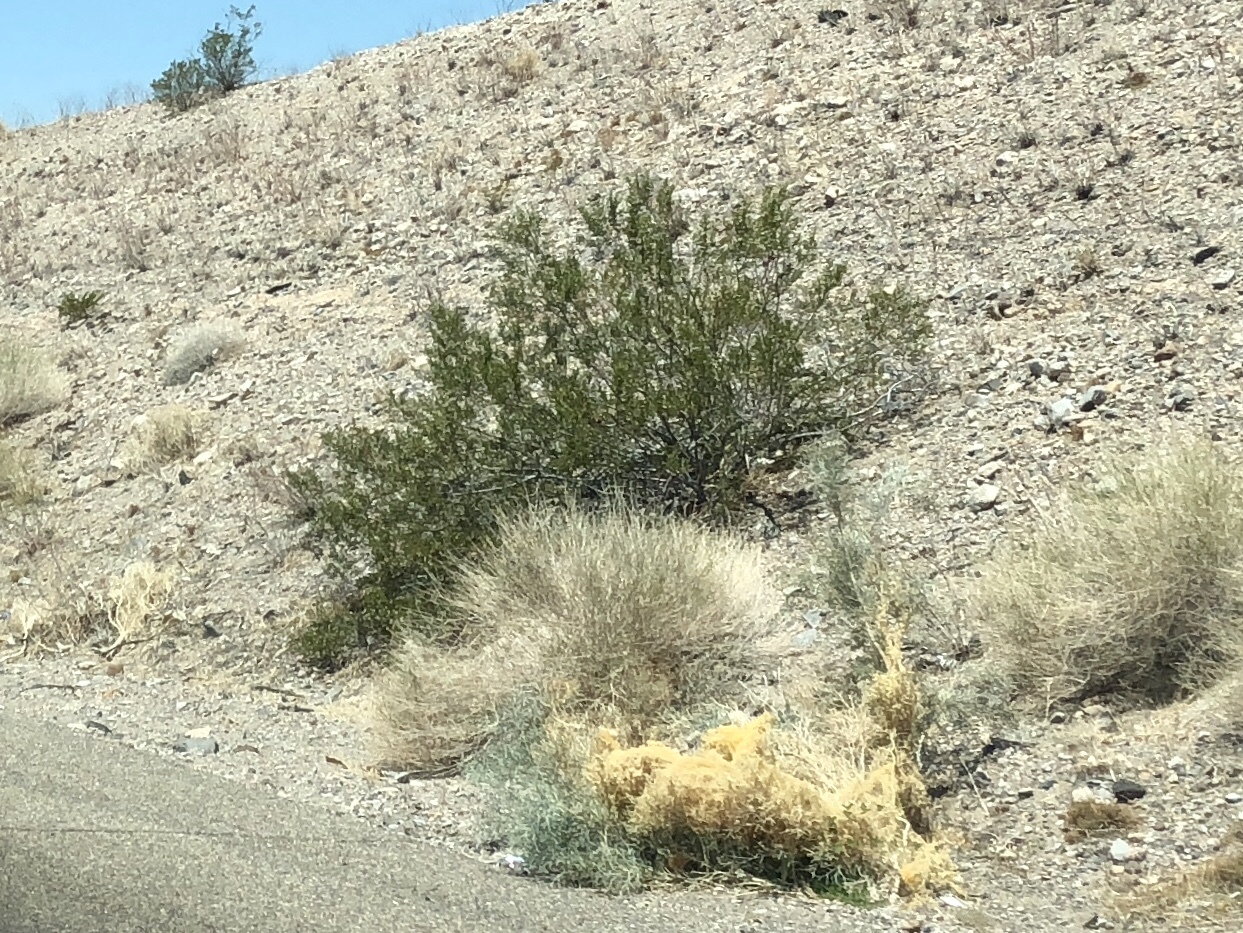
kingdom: Plantae
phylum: Tracheophyta
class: Magnoliopsida
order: Zygophyllales
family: Zygophyllaceae
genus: Larrea
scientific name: Larrea tridentata
